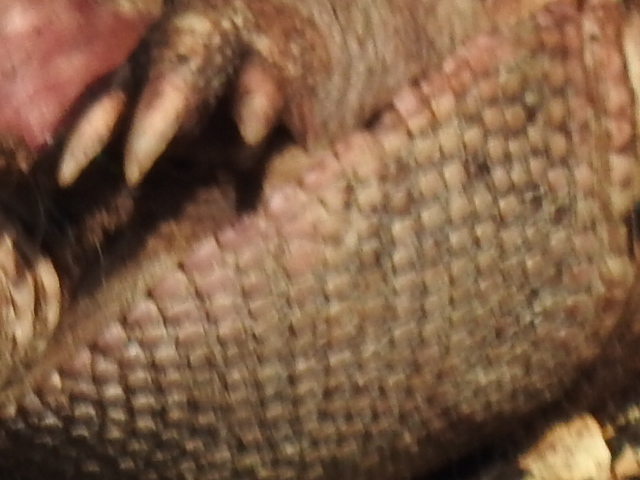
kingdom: Animalia
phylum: Chordata
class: Mammalia
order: Cingulata
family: Dasypodidae
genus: Dasypus
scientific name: Dasypus novemcinctus
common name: Nine-banded armadillo
